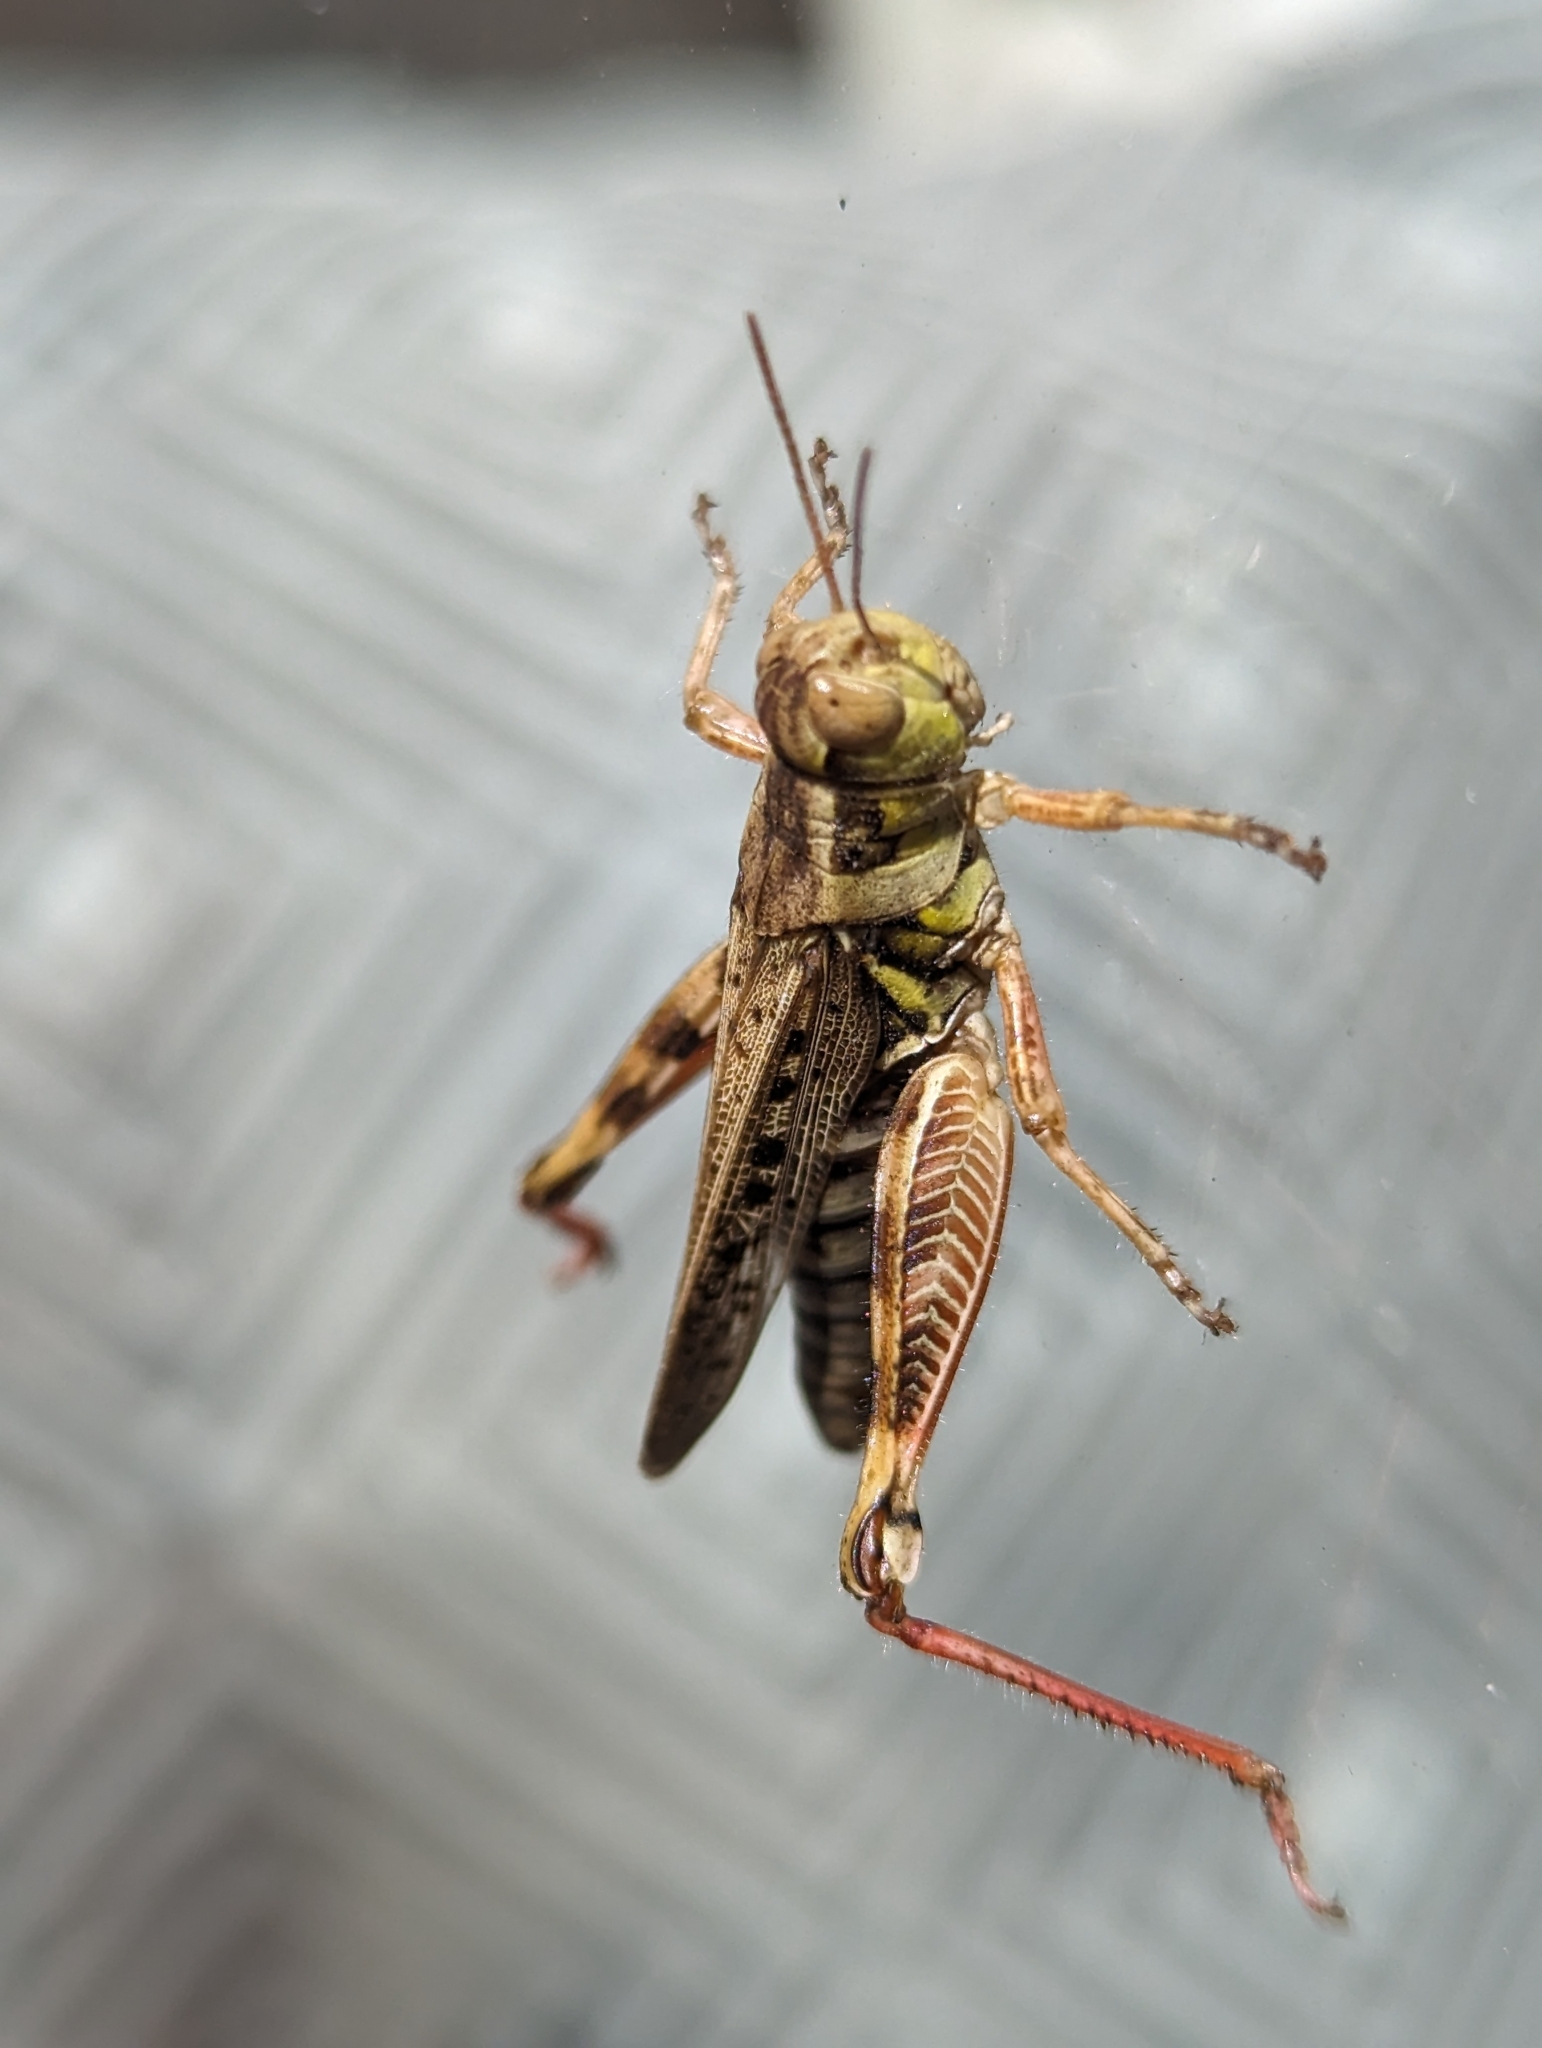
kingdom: Animalia
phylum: Arthropoda
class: Insecta
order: Orthoptera
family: Acrididae
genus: Melanoplus
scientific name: Melanoplus sanguinipes
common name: Migratory grasshopper
